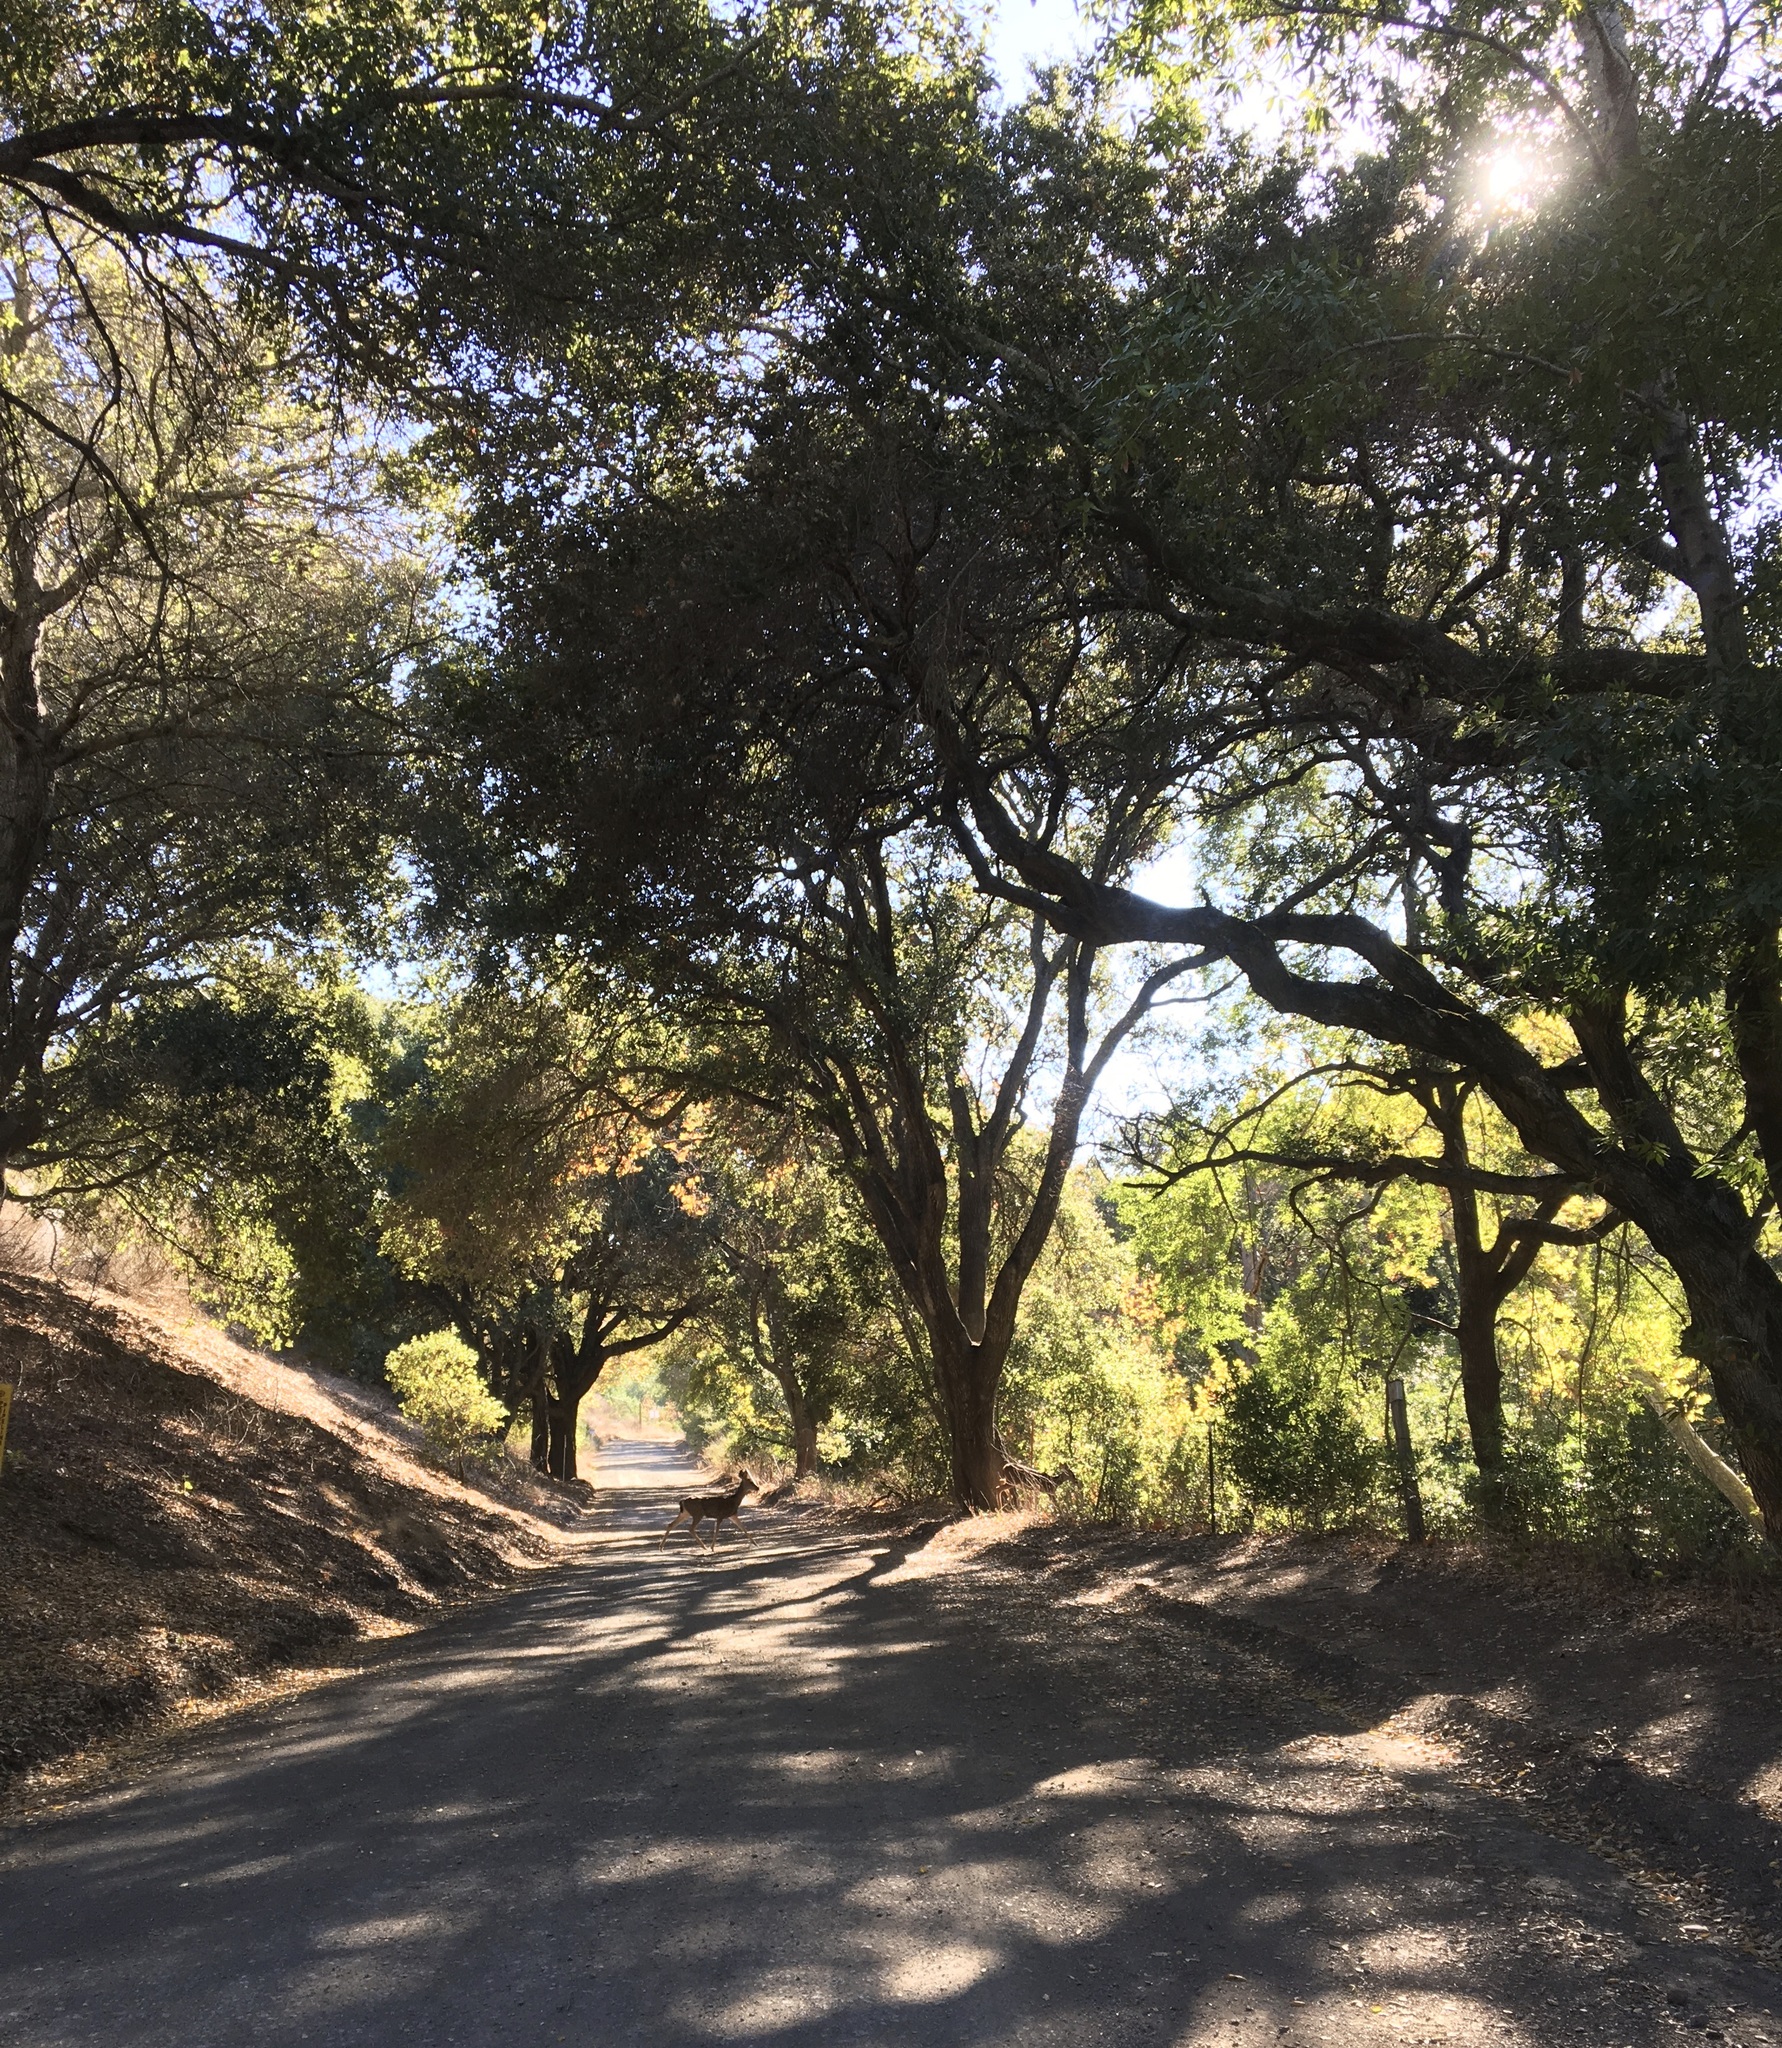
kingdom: Animalia
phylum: Chordata
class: Mammalia
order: Artiodactyla
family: Cervidae
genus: Odocoileus
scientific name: Odocoileus hemionus
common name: Mule deer
